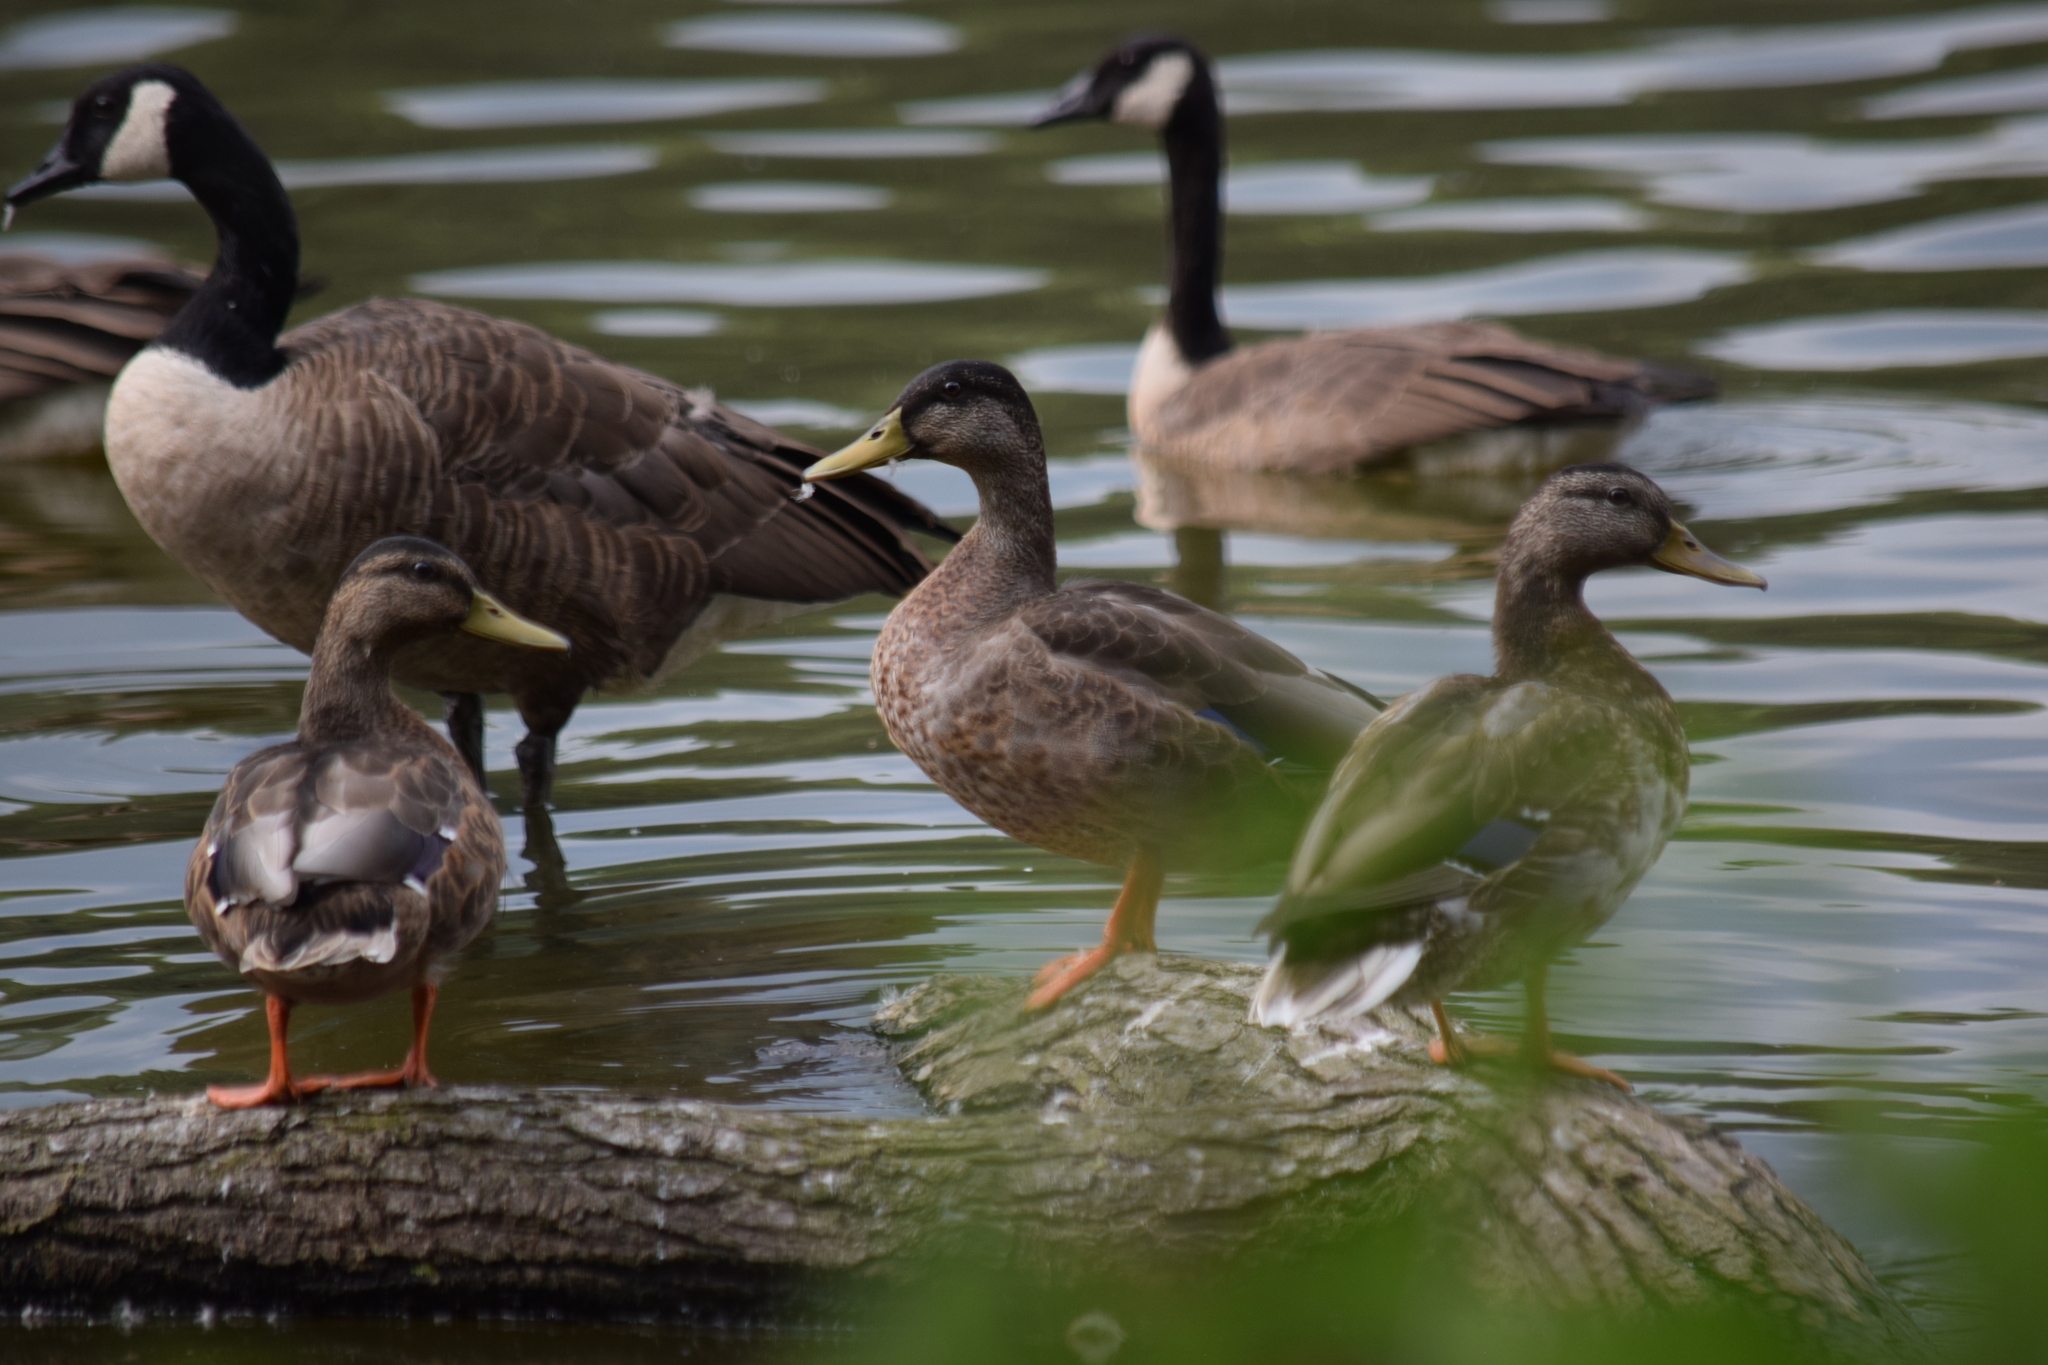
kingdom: Animalia
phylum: Chordata
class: Aves
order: Anseriformes
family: Anatidae
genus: Anas
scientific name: Anas platyrhynchos
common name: Mallard
